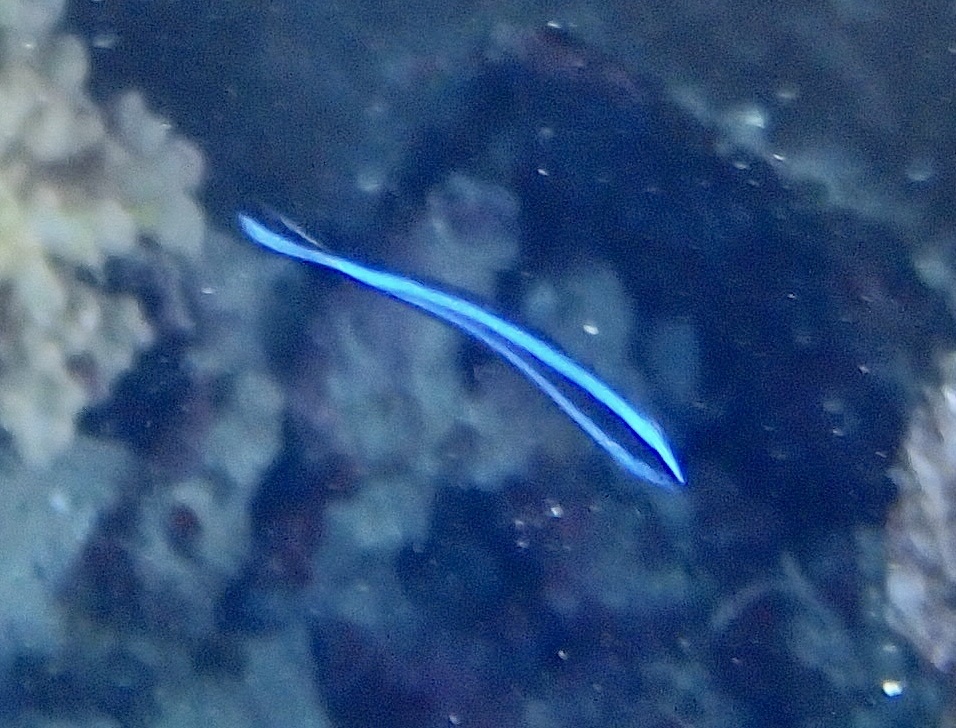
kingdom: Animalia
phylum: Chordata
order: Perciformes
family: Labridae
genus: Labroides
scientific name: Labroides dimidiatus
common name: Blue diesel wrasse
